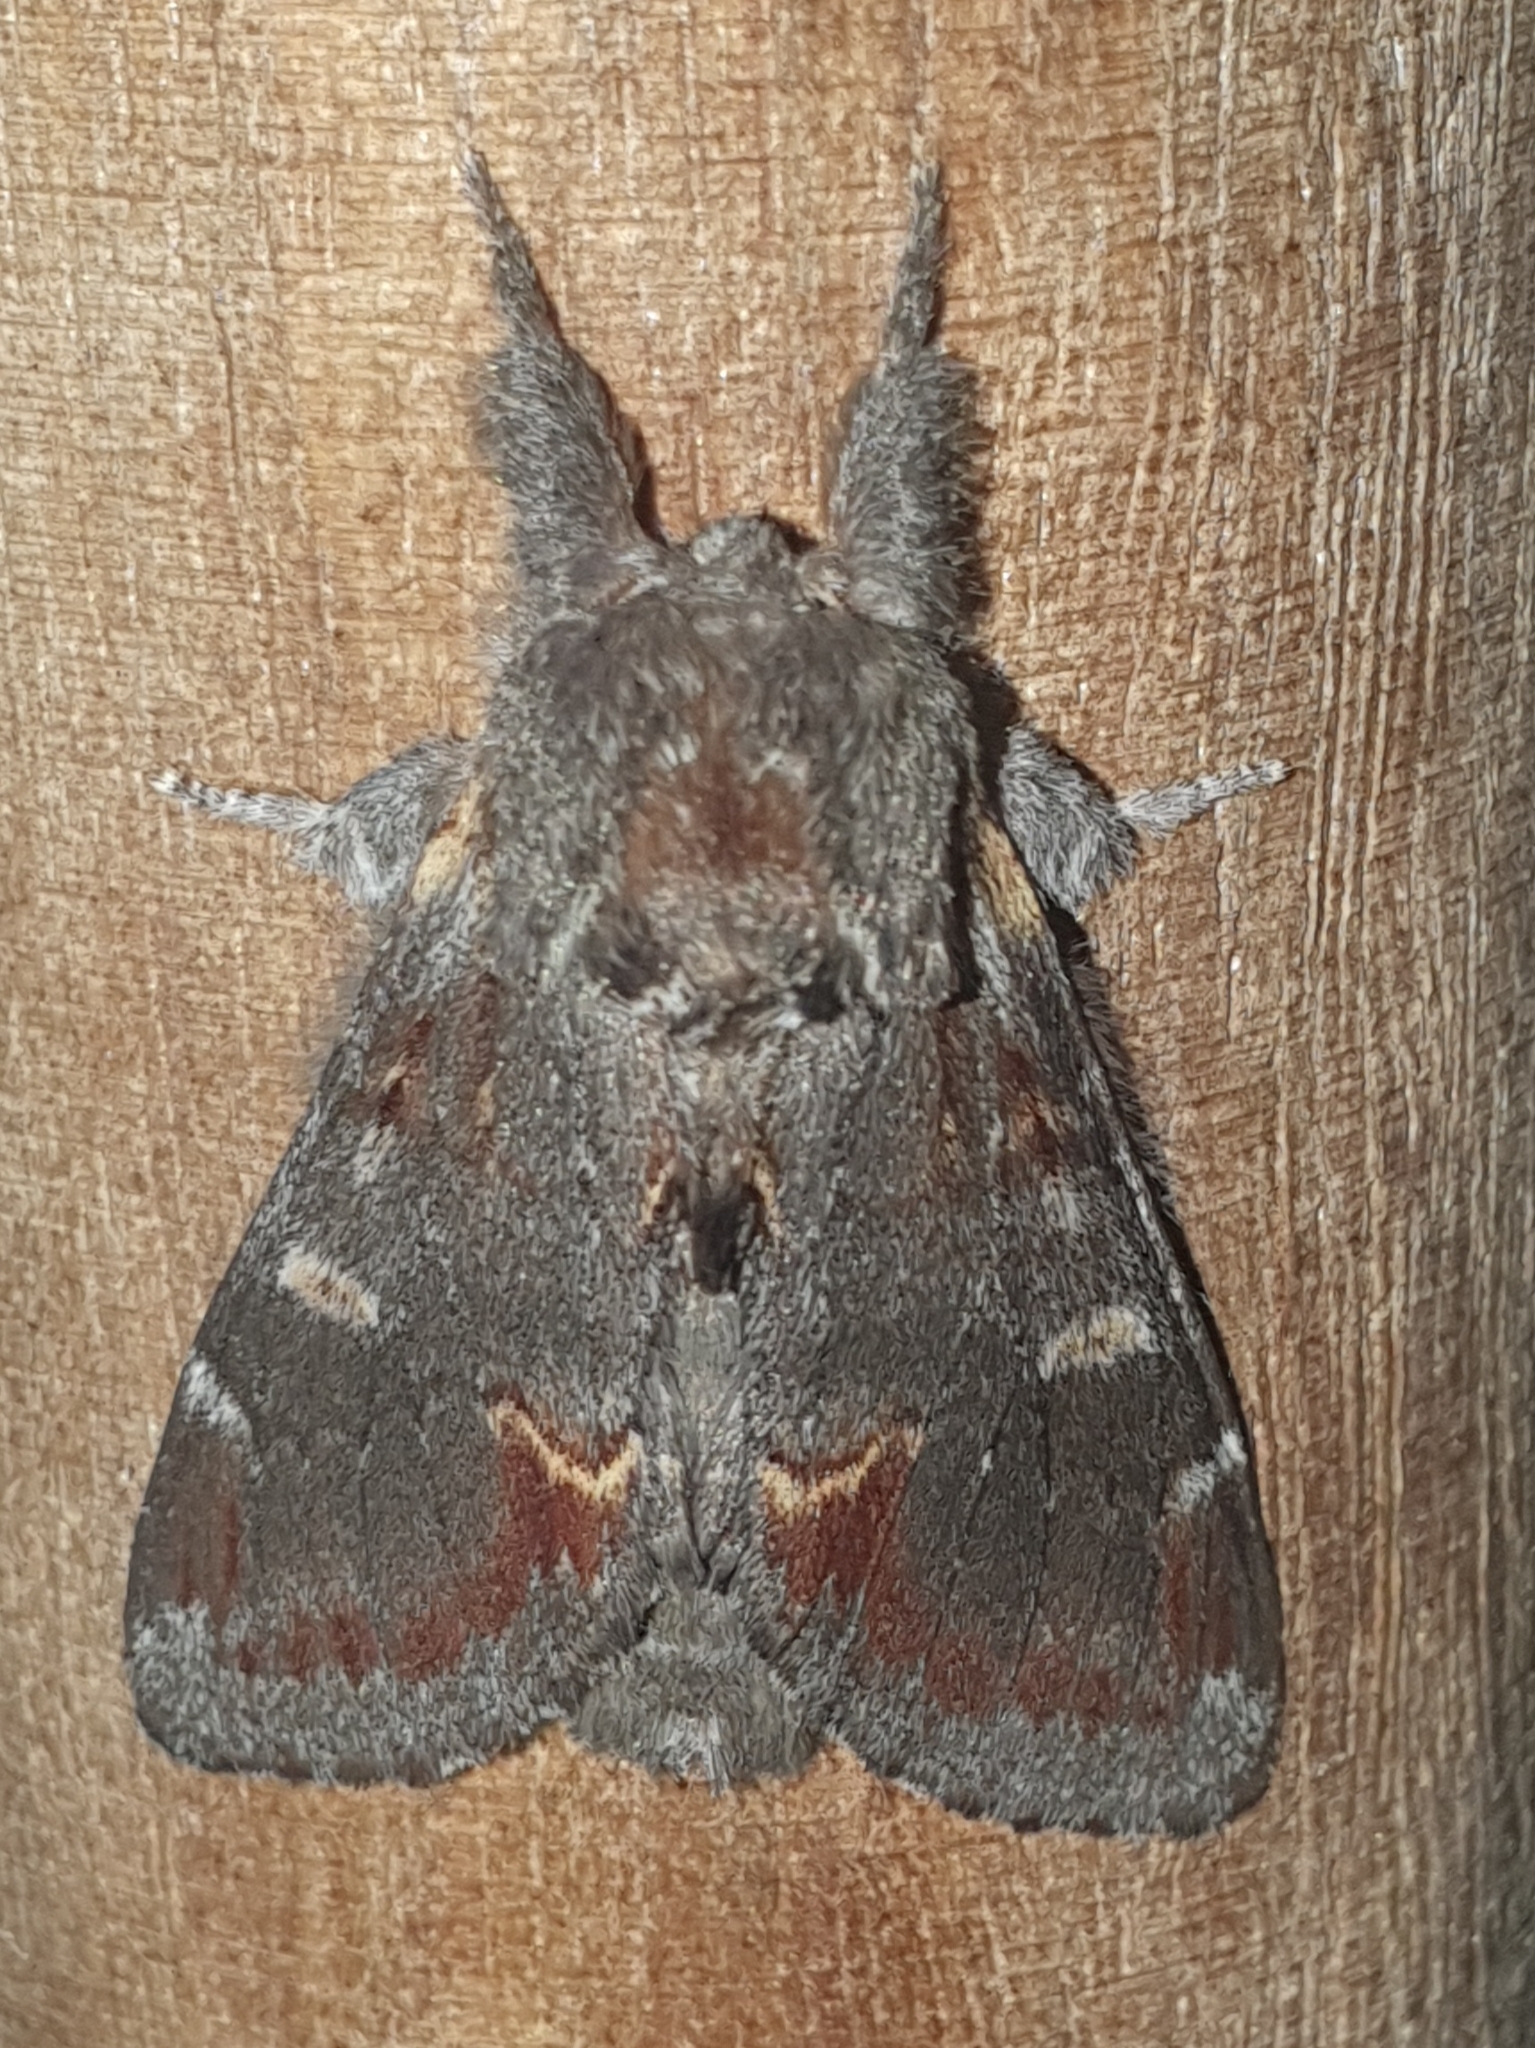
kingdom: Animalia
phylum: Arthropoda
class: Insecta
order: Lepidoptera
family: Notodontidae
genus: Notodonta
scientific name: Notodonta dromedarius
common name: Iron prominent
